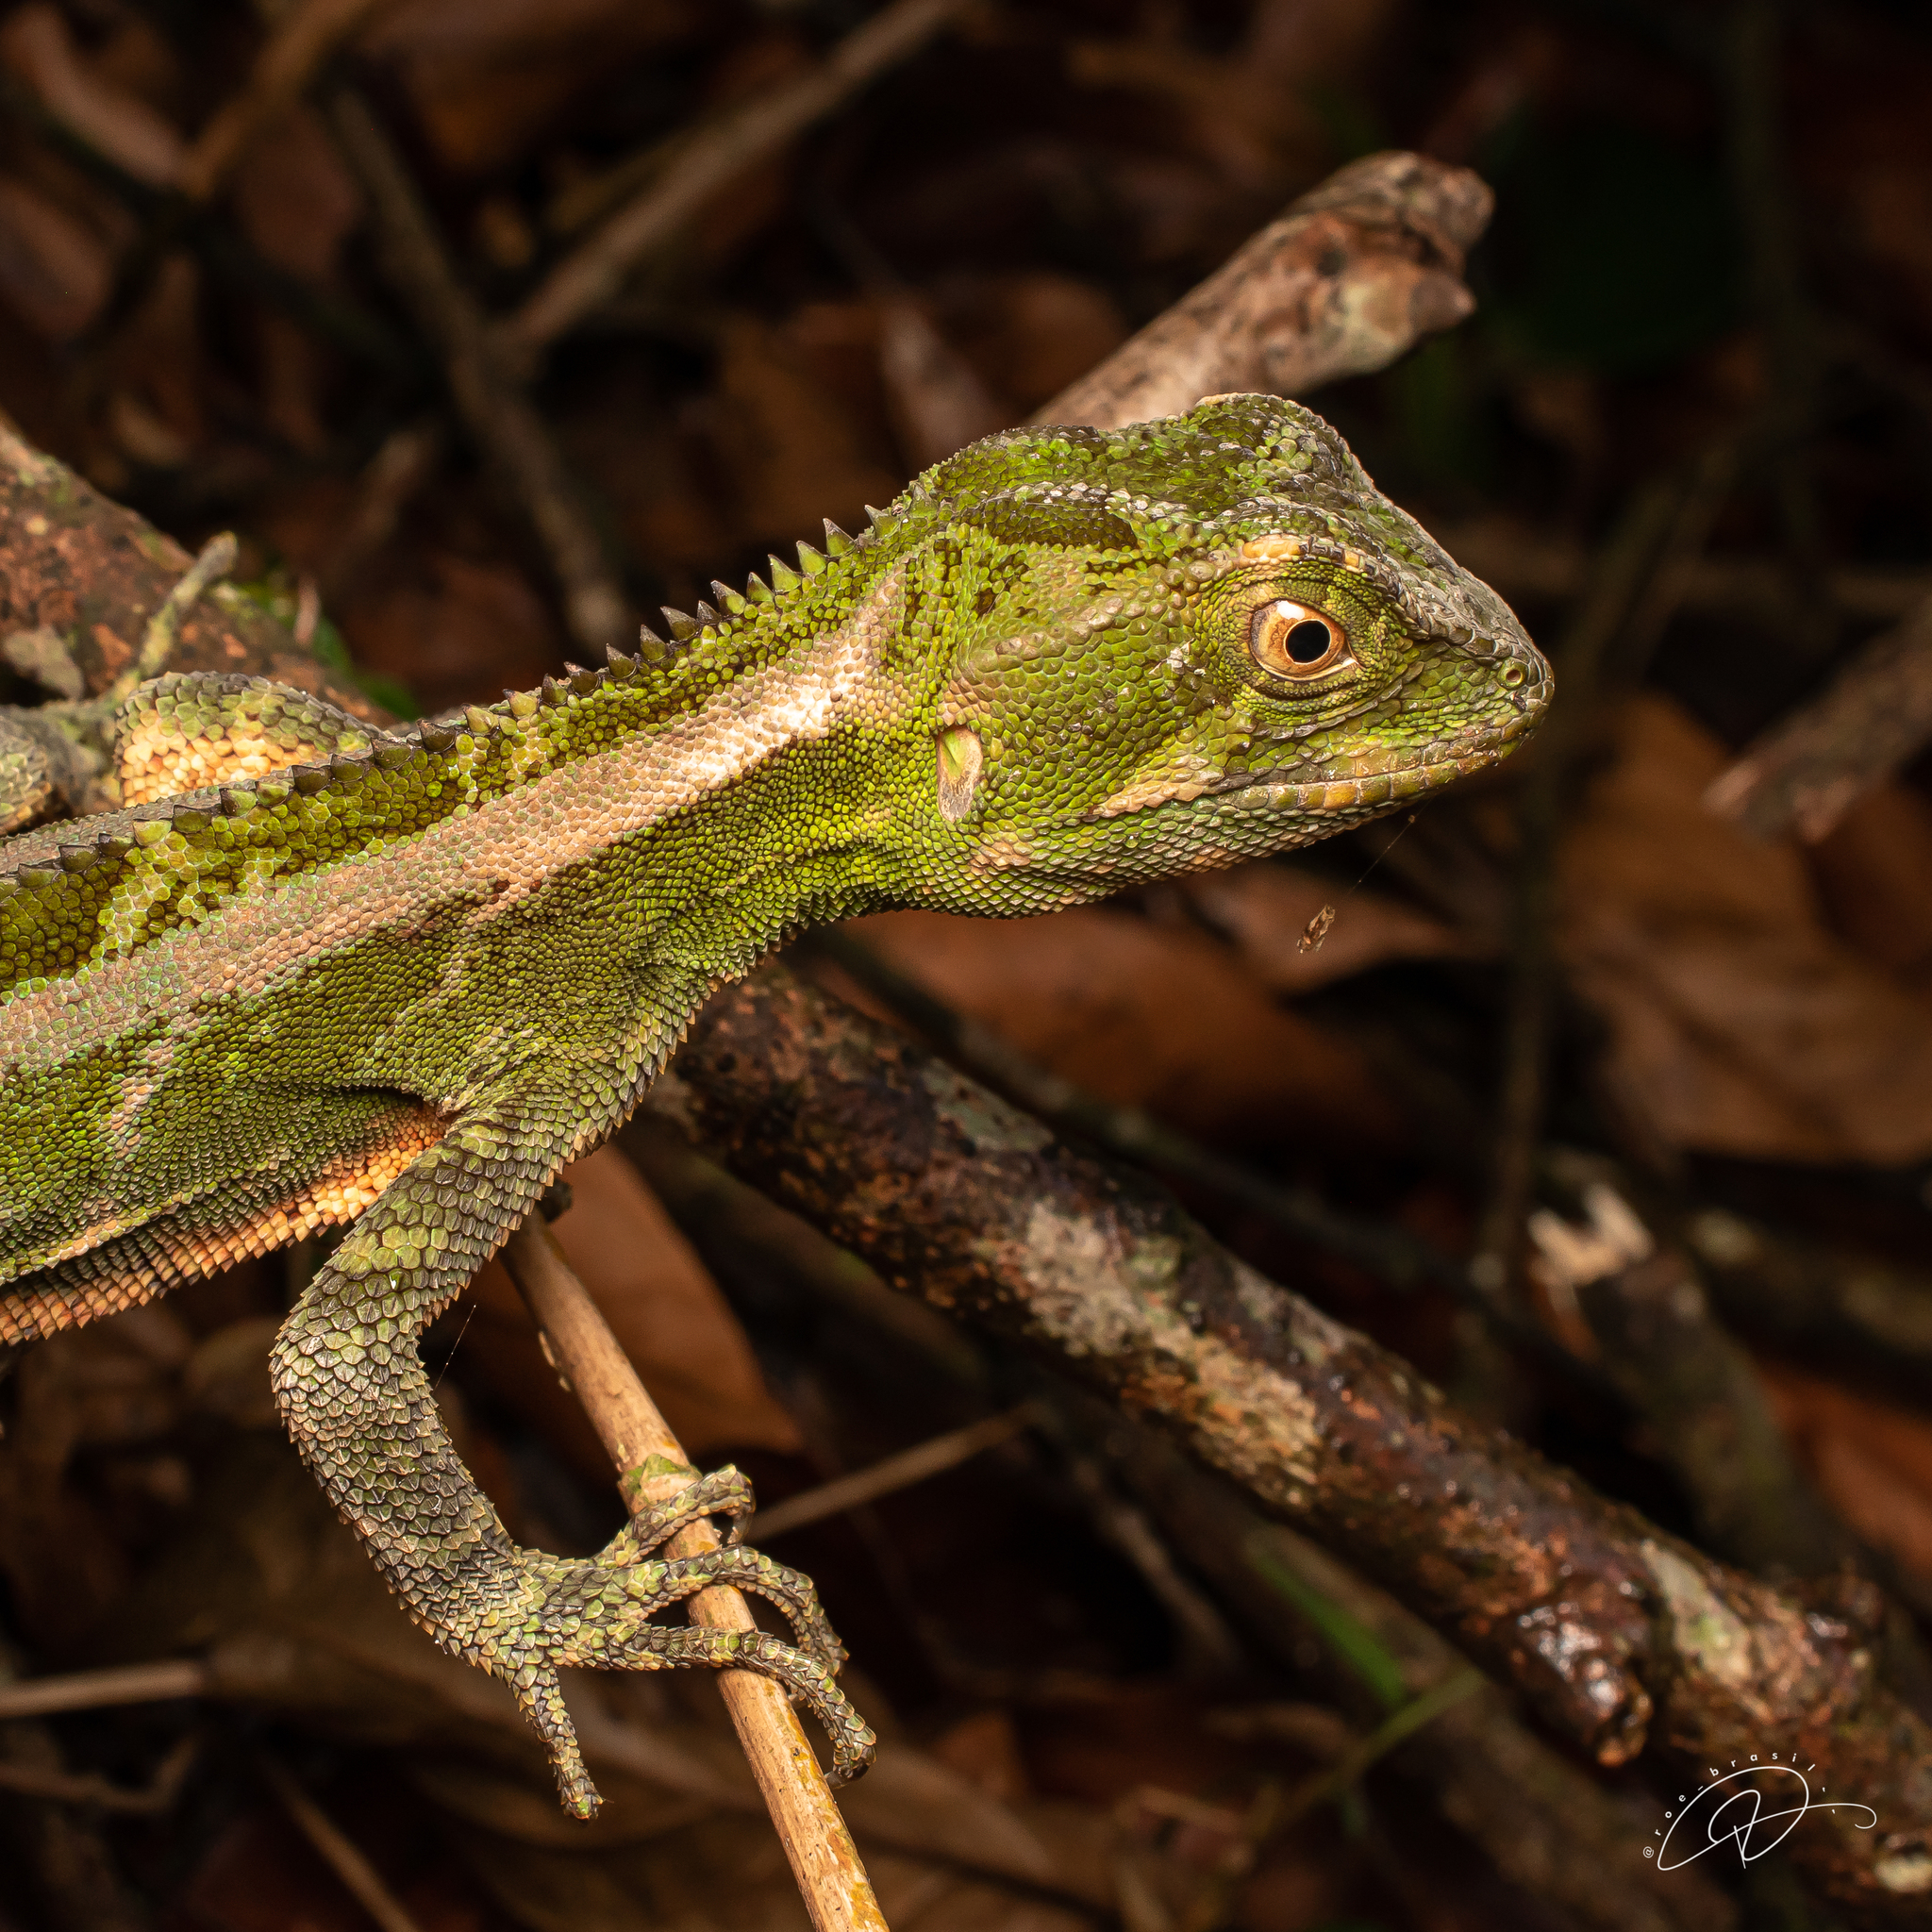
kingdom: Animalia
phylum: Chordata
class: Squamata
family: Leiosauridae
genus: Enyalius
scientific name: Enyalius iheringii
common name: Ihering's fathead anole
